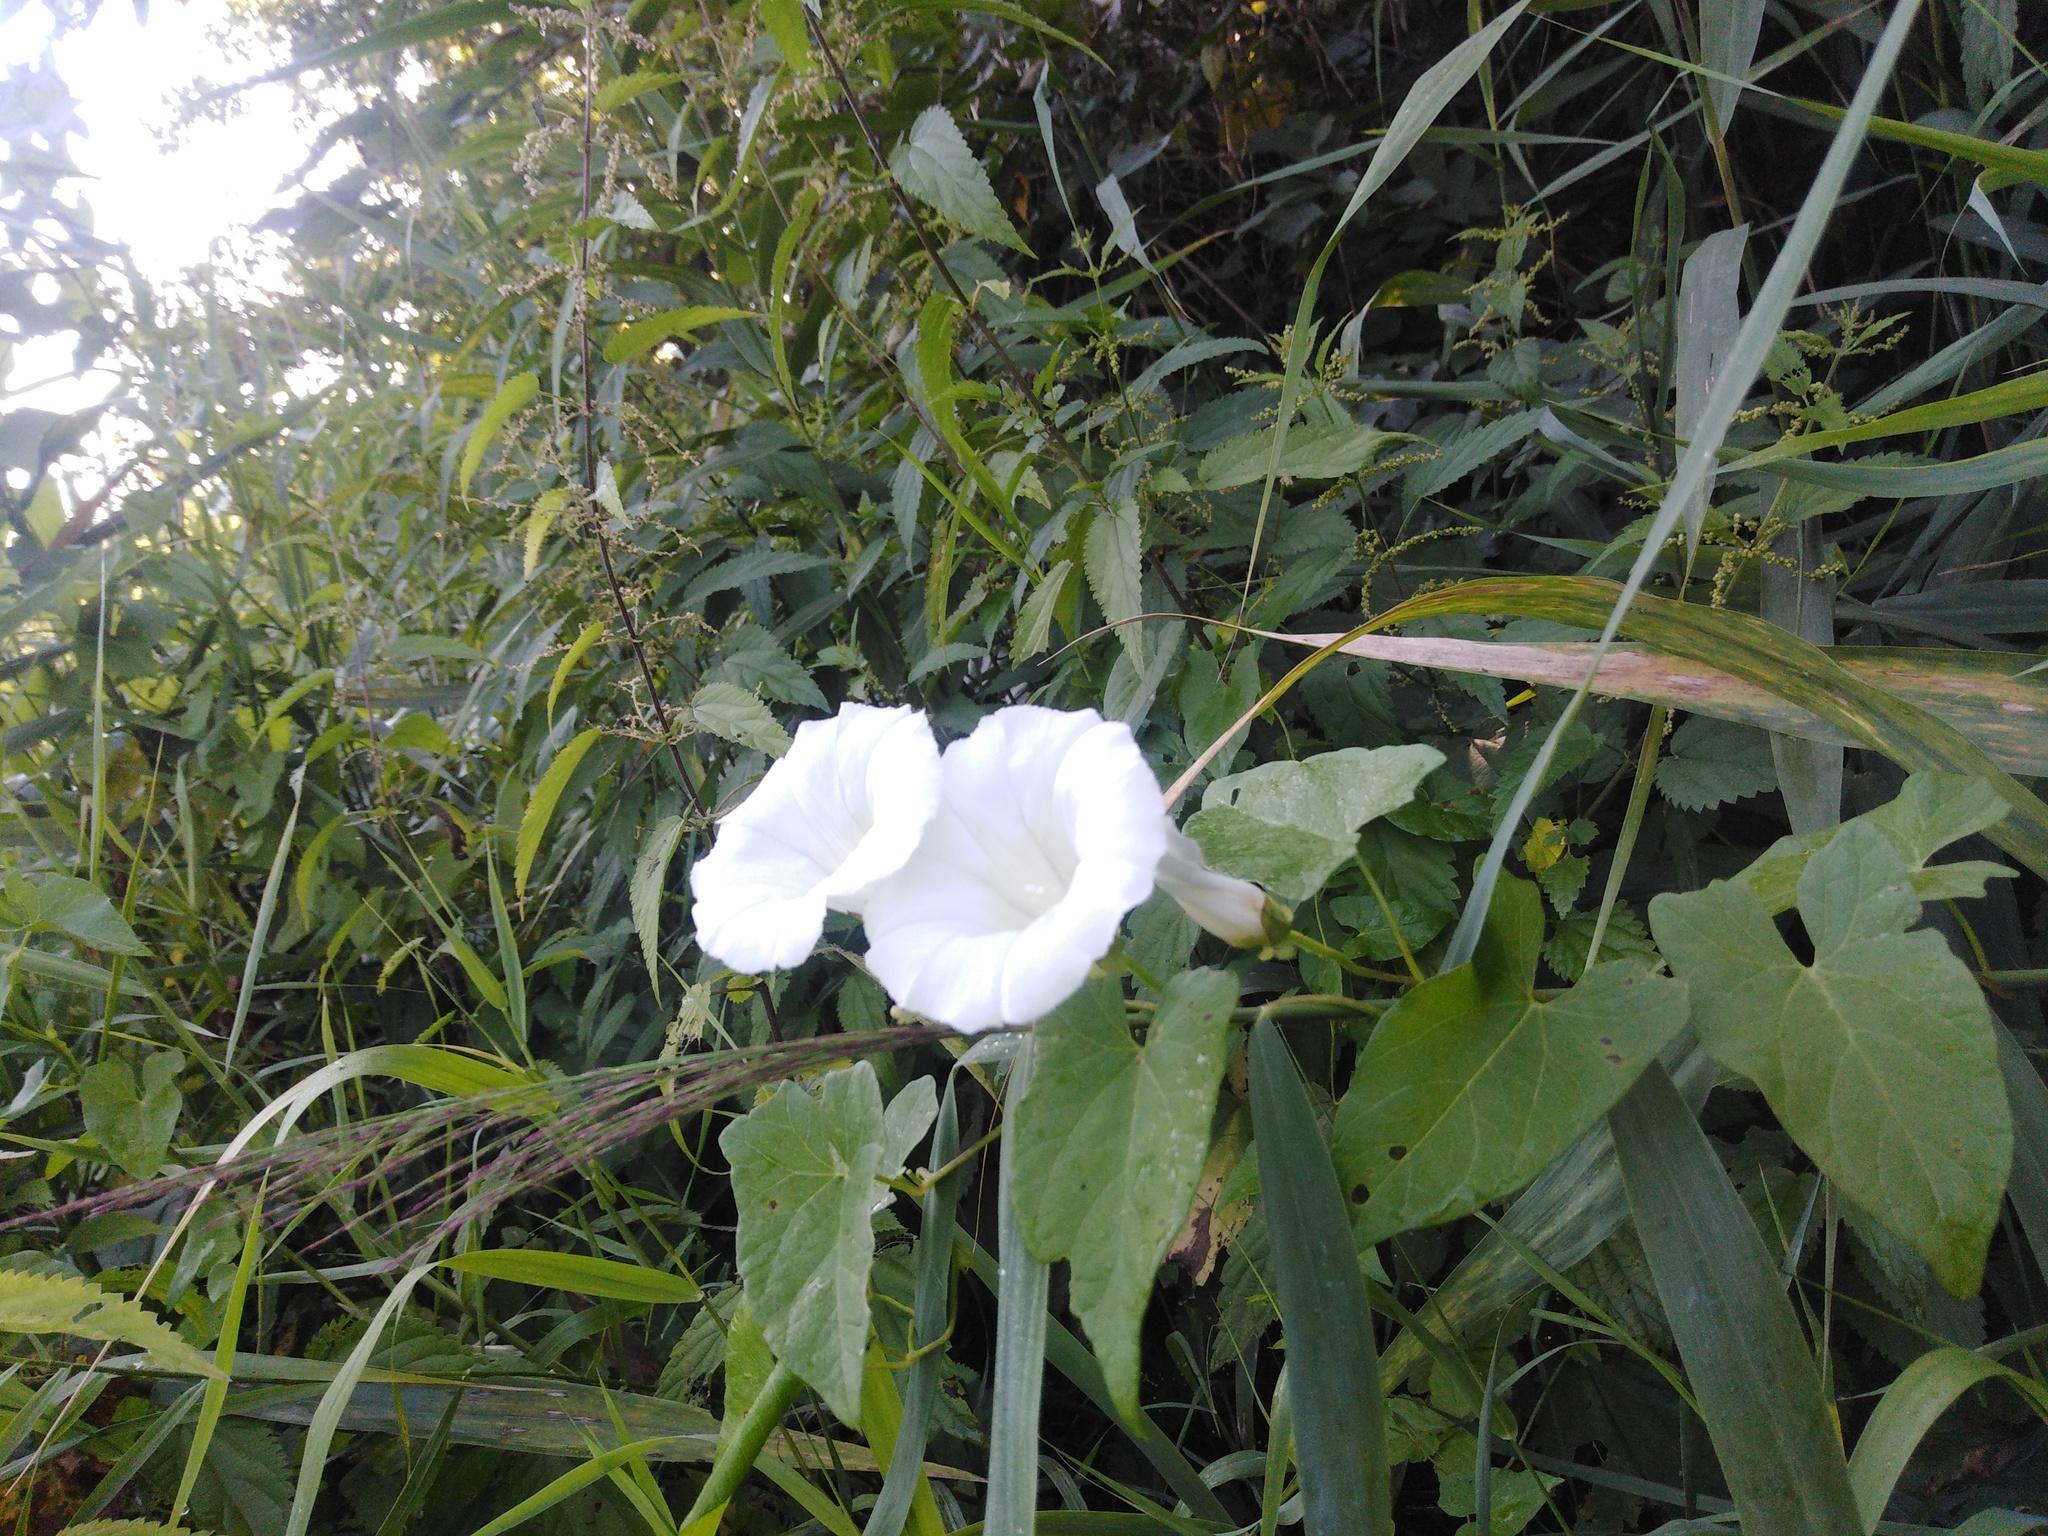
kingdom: Plantae
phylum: Tracheophyta
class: Magnoliopsida
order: Solanales
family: Convolvulaceae
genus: Calystegia
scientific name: Calystegia sepium
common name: Hedge bindweed
